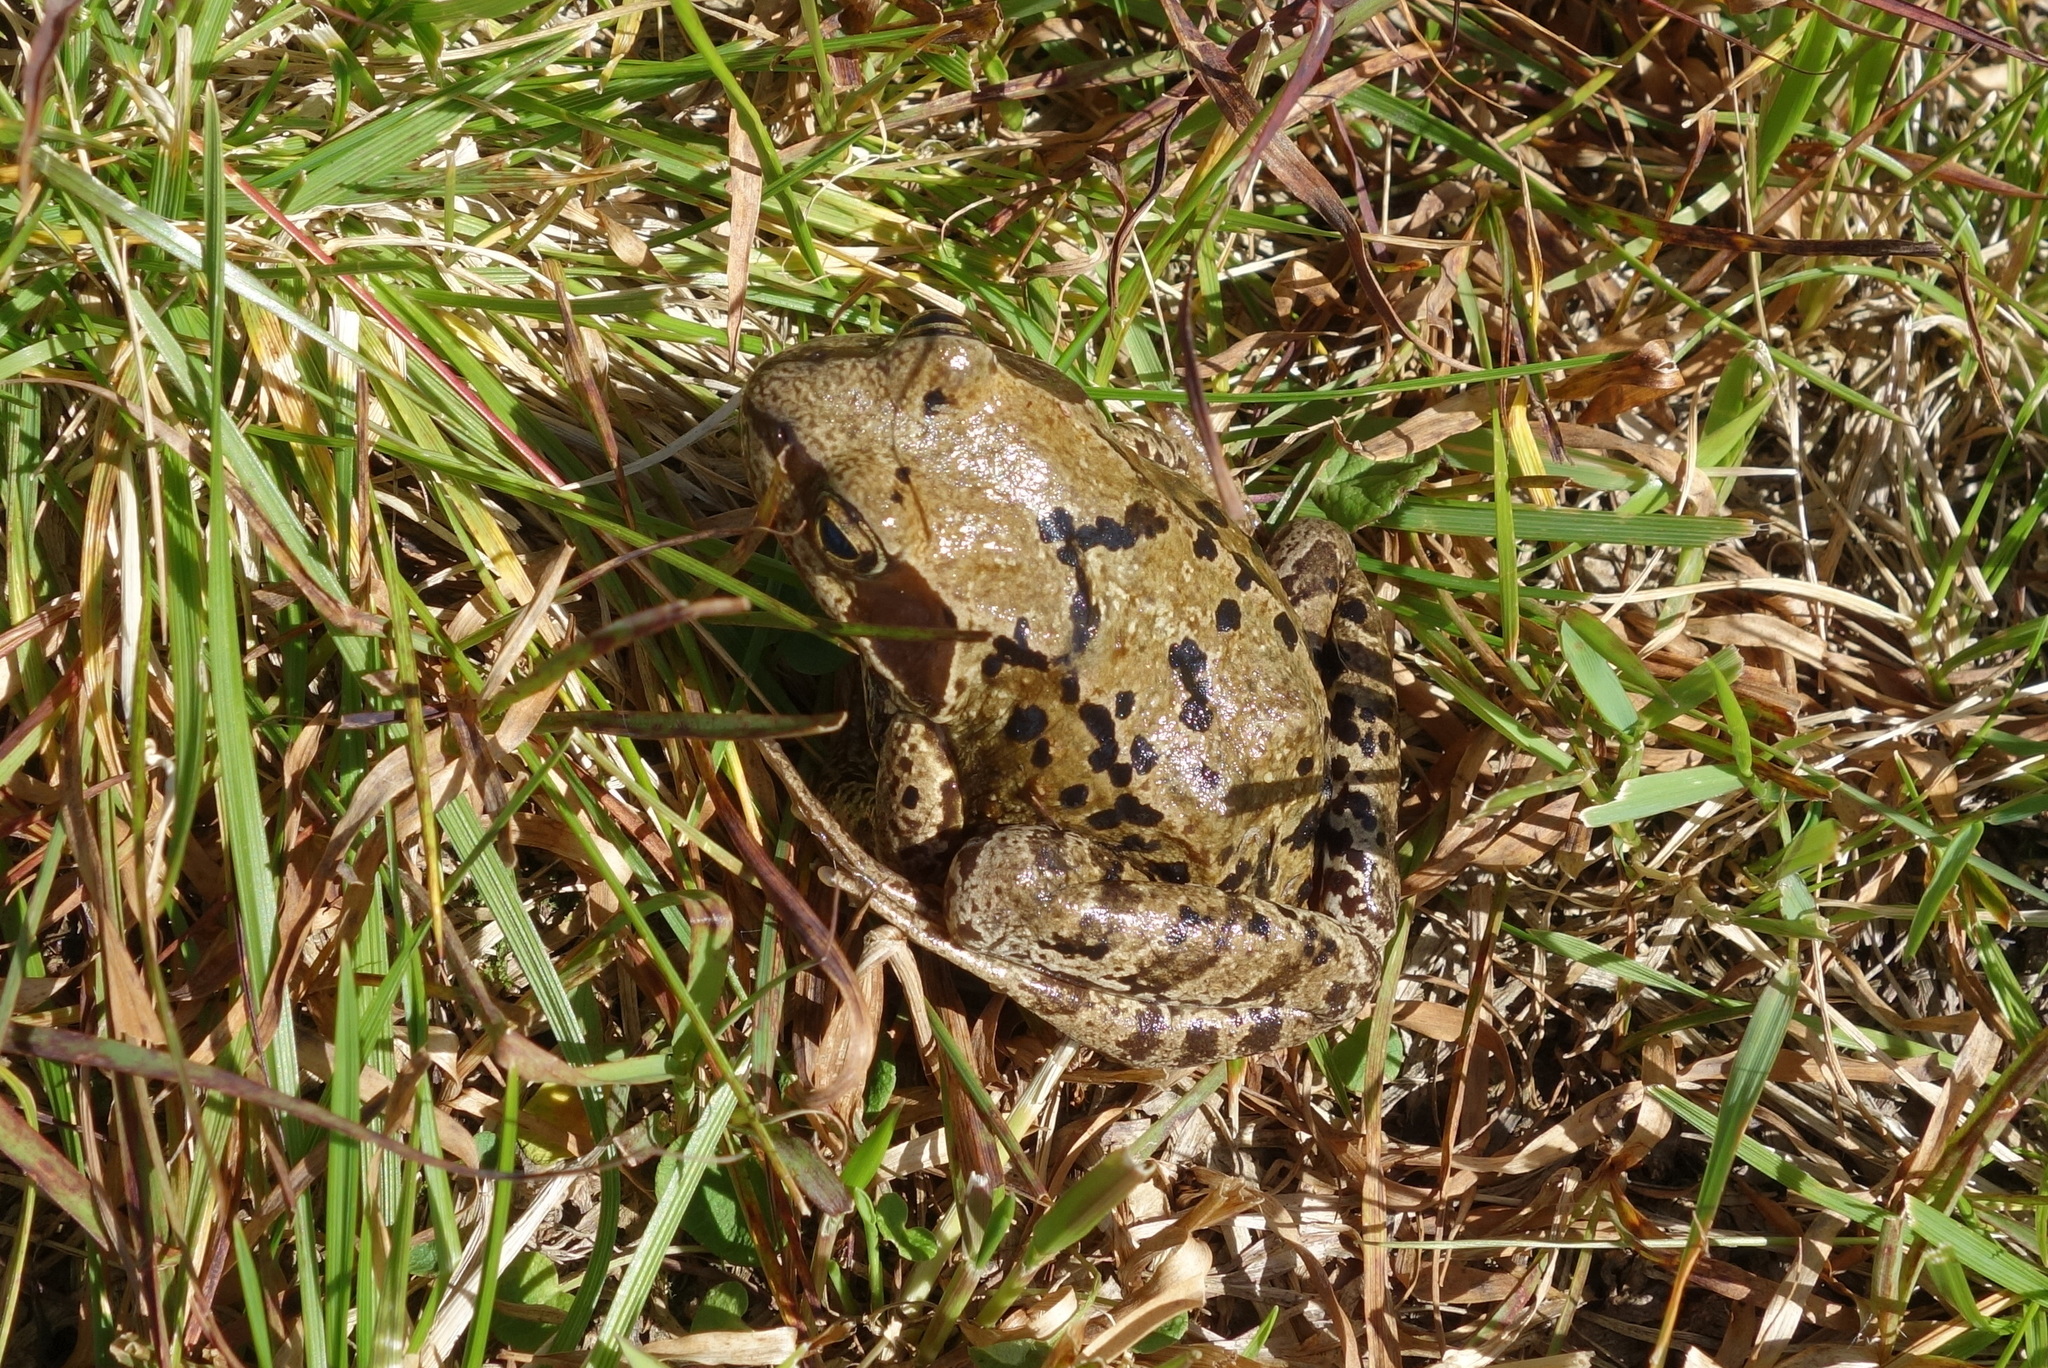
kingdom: Animalia
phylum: Chordata
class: Amphibia
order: Anura
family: Ranidae
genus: Rana
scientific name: Rana temporaria
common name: Common frog
